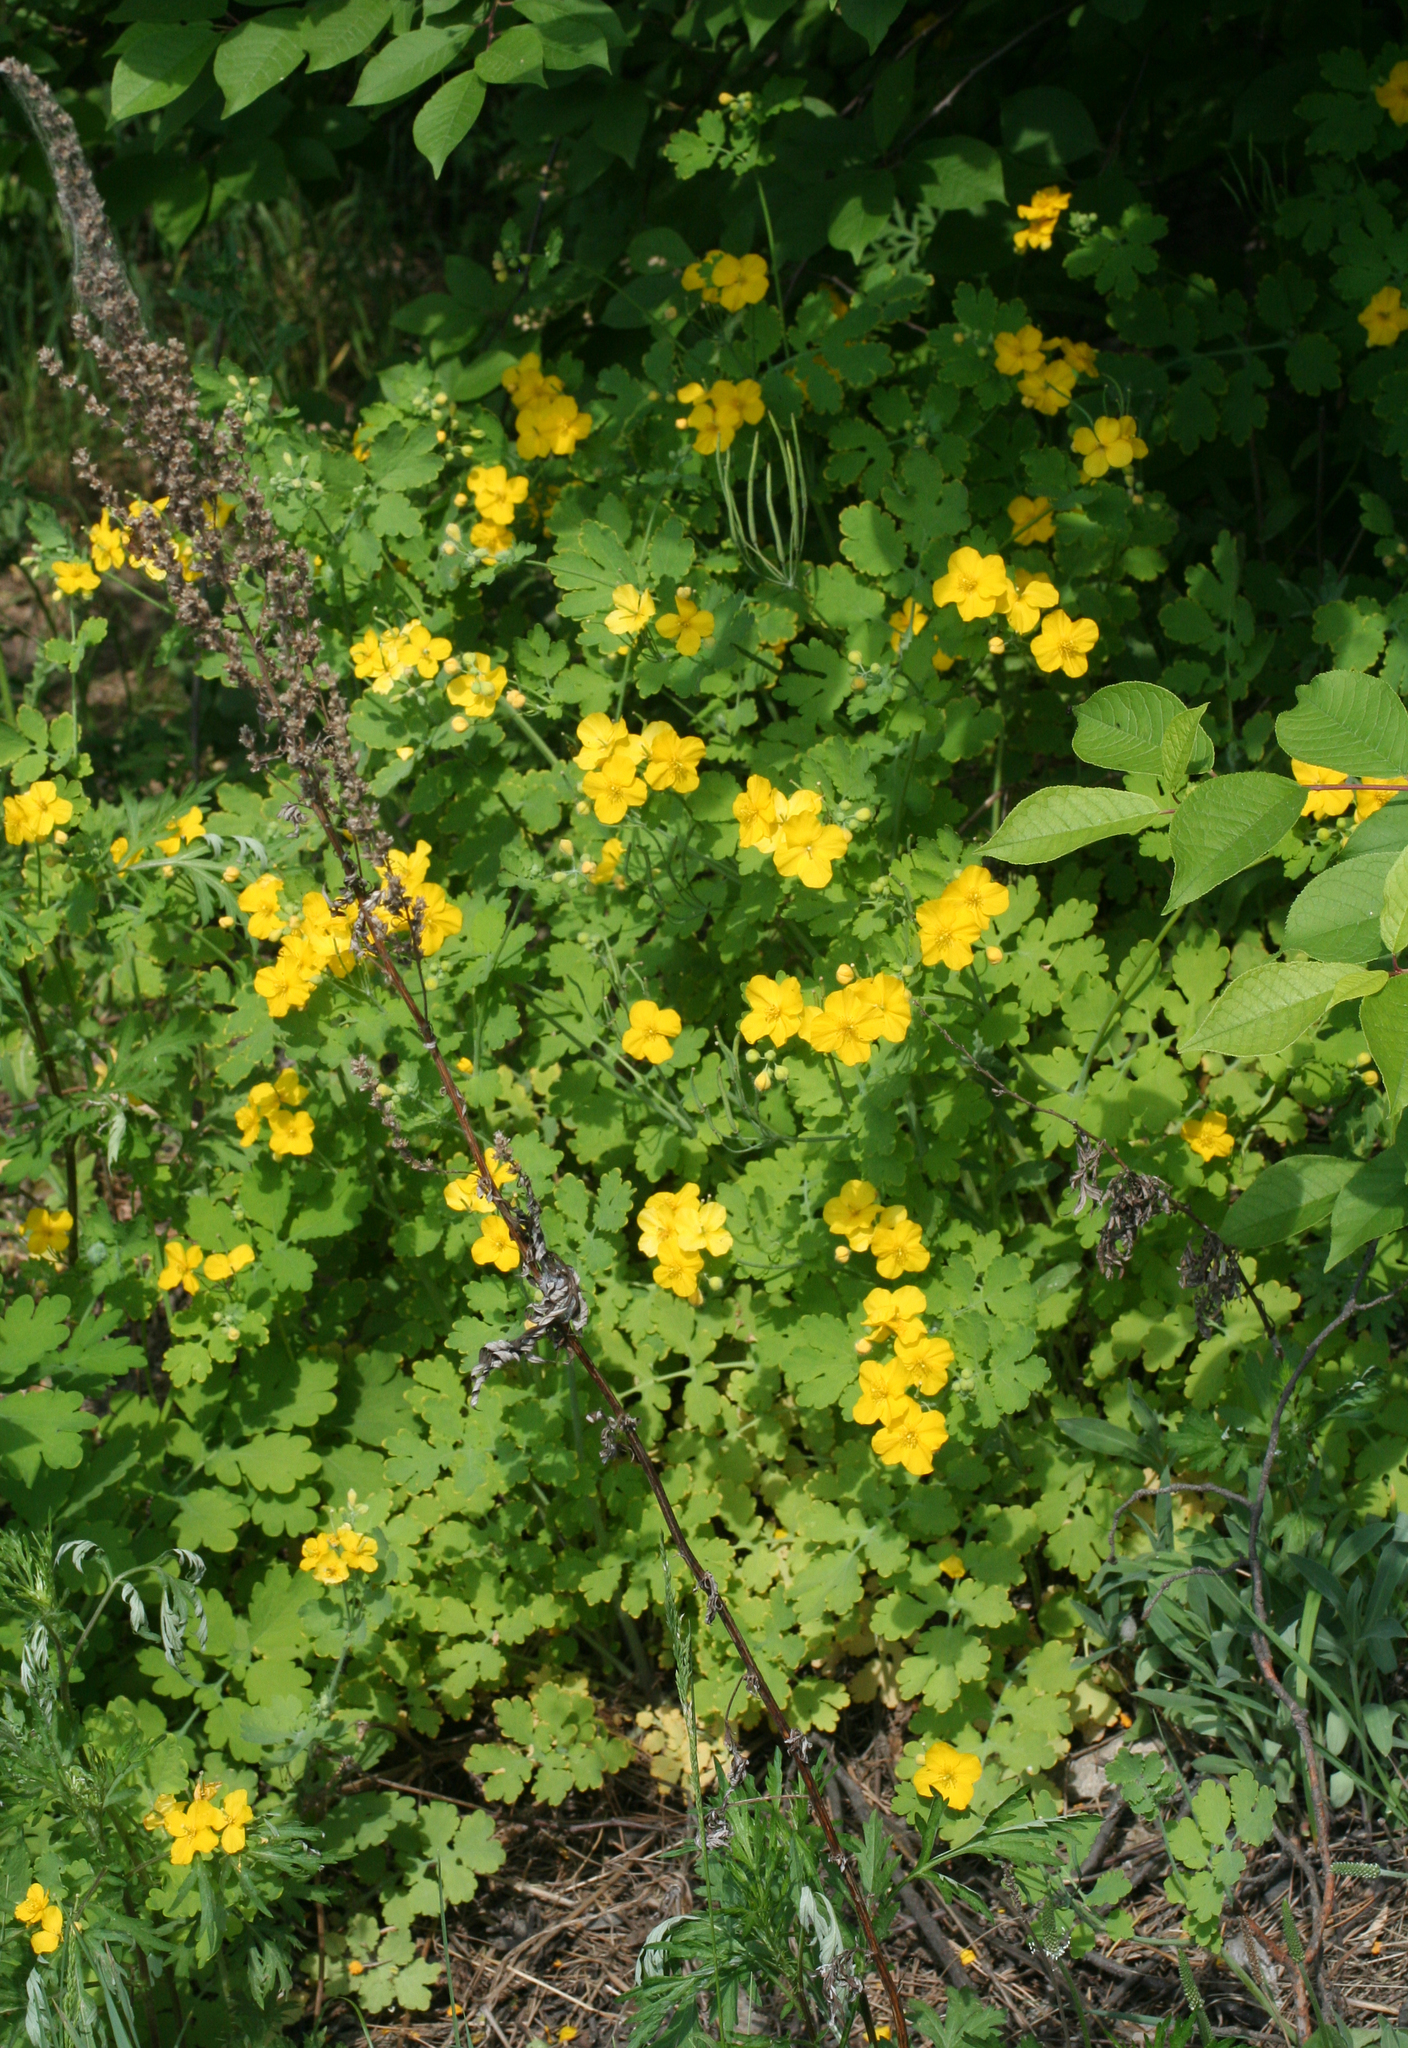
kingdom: Plantae
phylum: Tracheophyta
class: Magnoliopsida
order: Ranunculales
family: Papaveraceae
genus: Chelidonium
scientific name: Chelidonium majus
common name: Greater celandine
